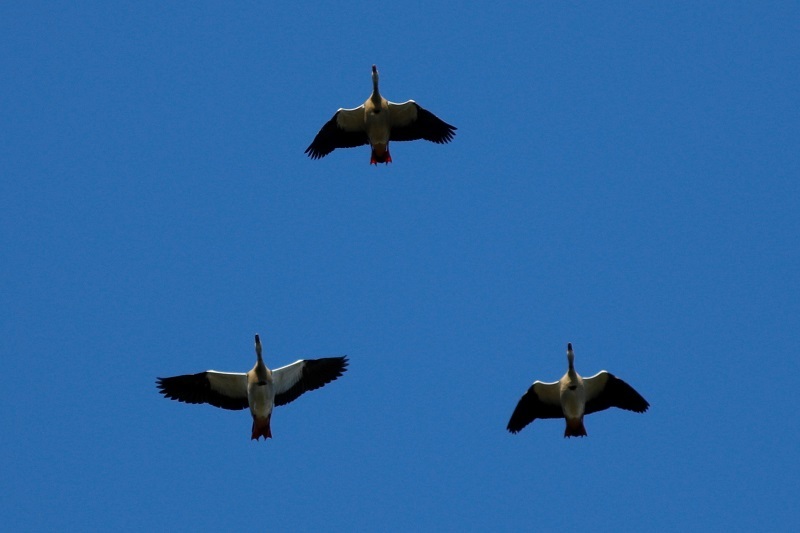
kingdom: Animalia
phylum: Chordata
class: Aves
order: Anseriformes
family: Anatidae
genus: Alopochen
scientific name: Alopochen aegyptiaca
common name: Egyptian goose
